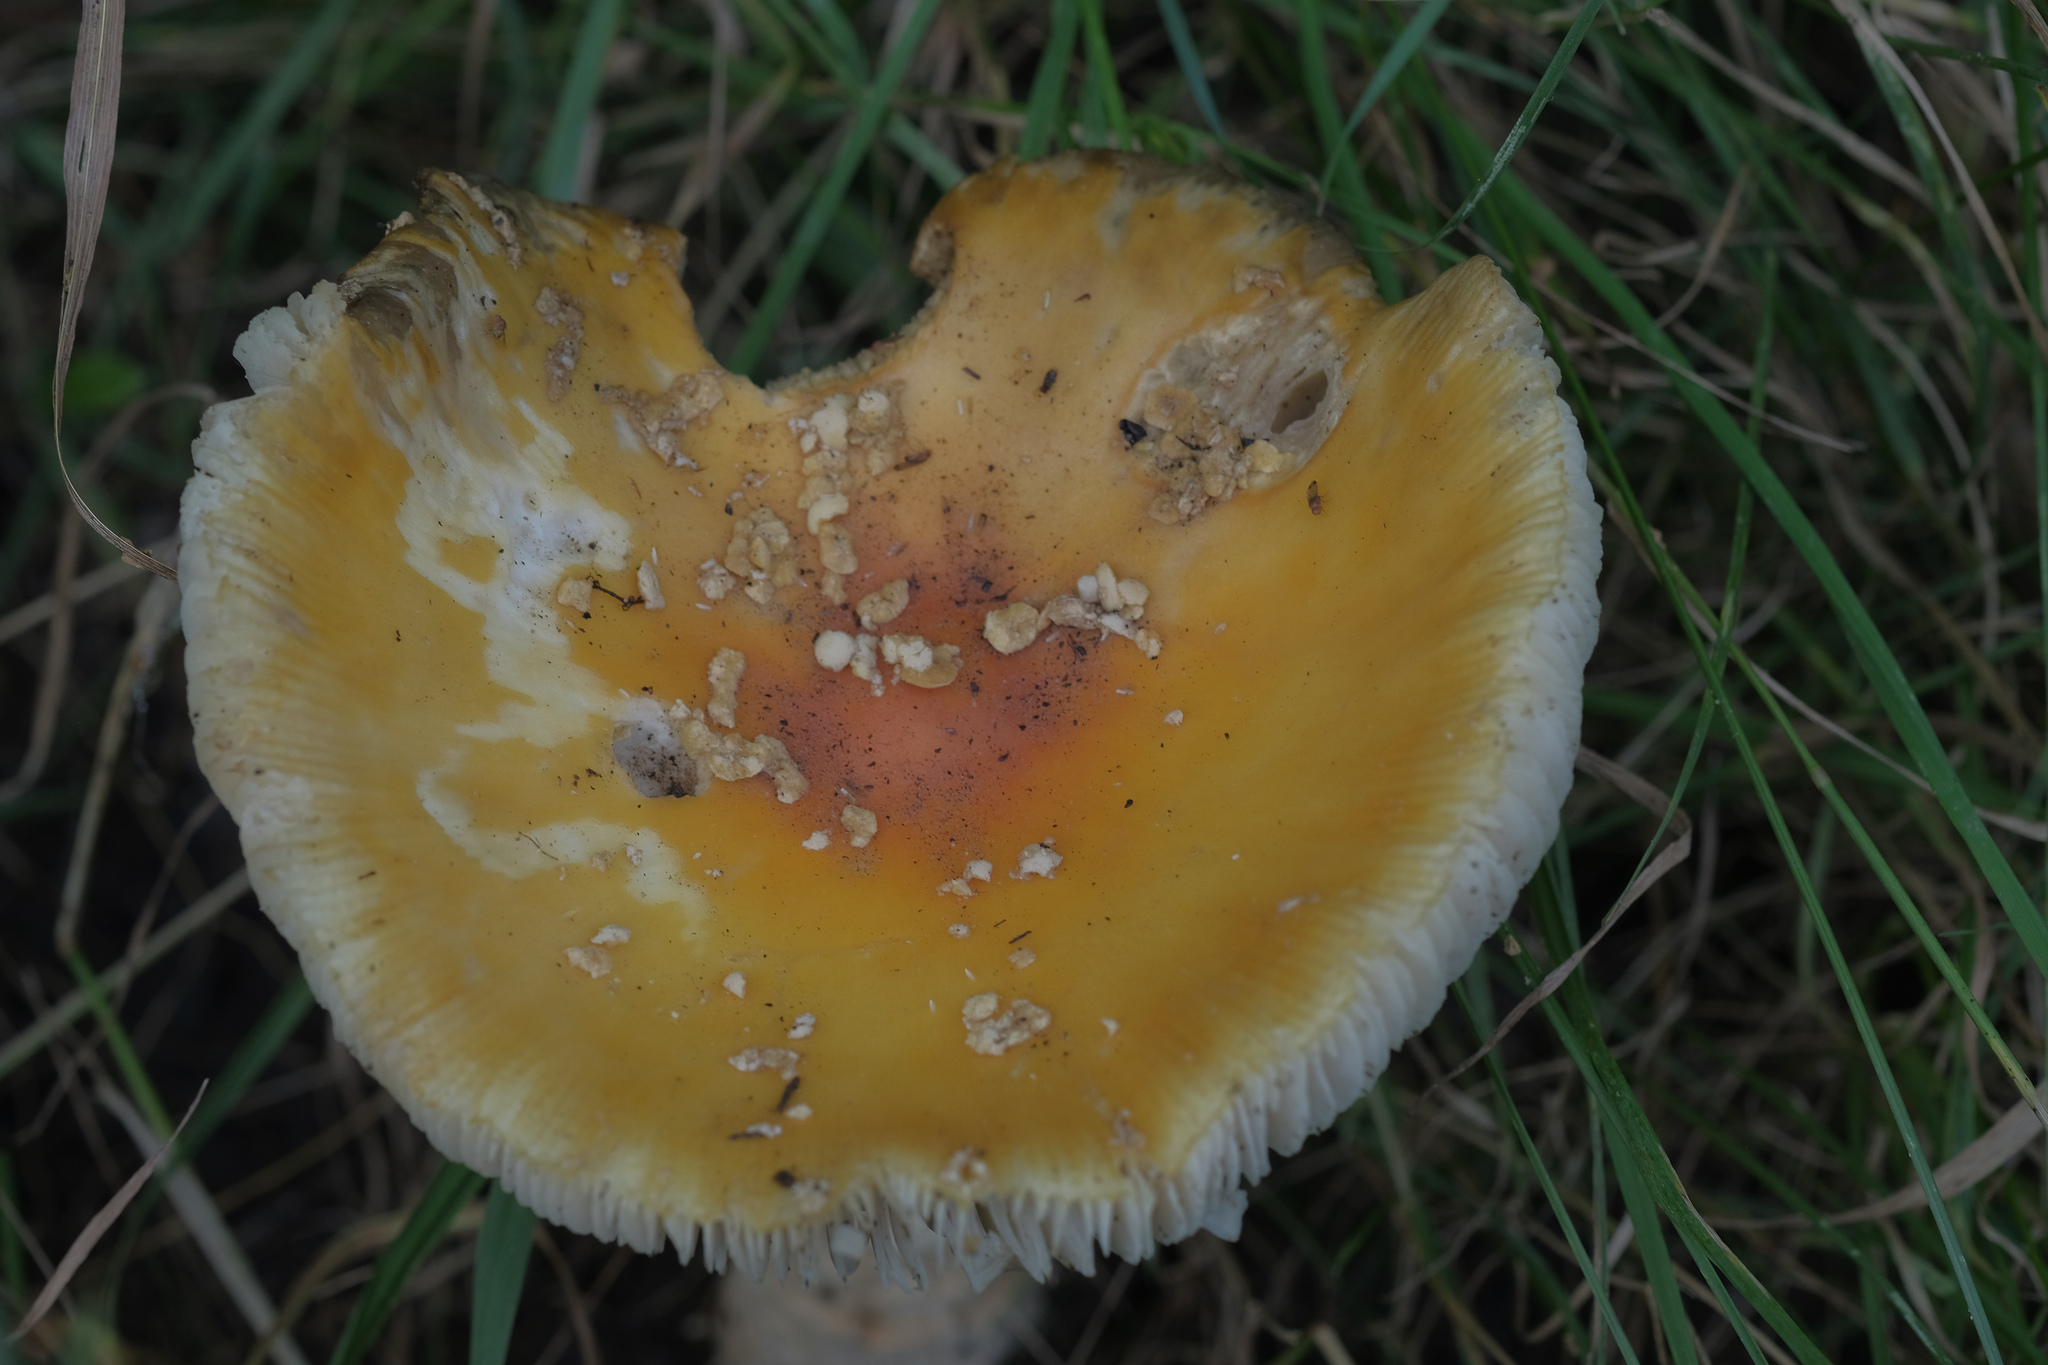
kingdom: Fungi
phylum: Basidiomycota
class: Agaricomycetes
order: Agaricales
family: Amanitaceae
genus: Amanita
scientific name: Amanita muscaria
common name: Fly agaric
